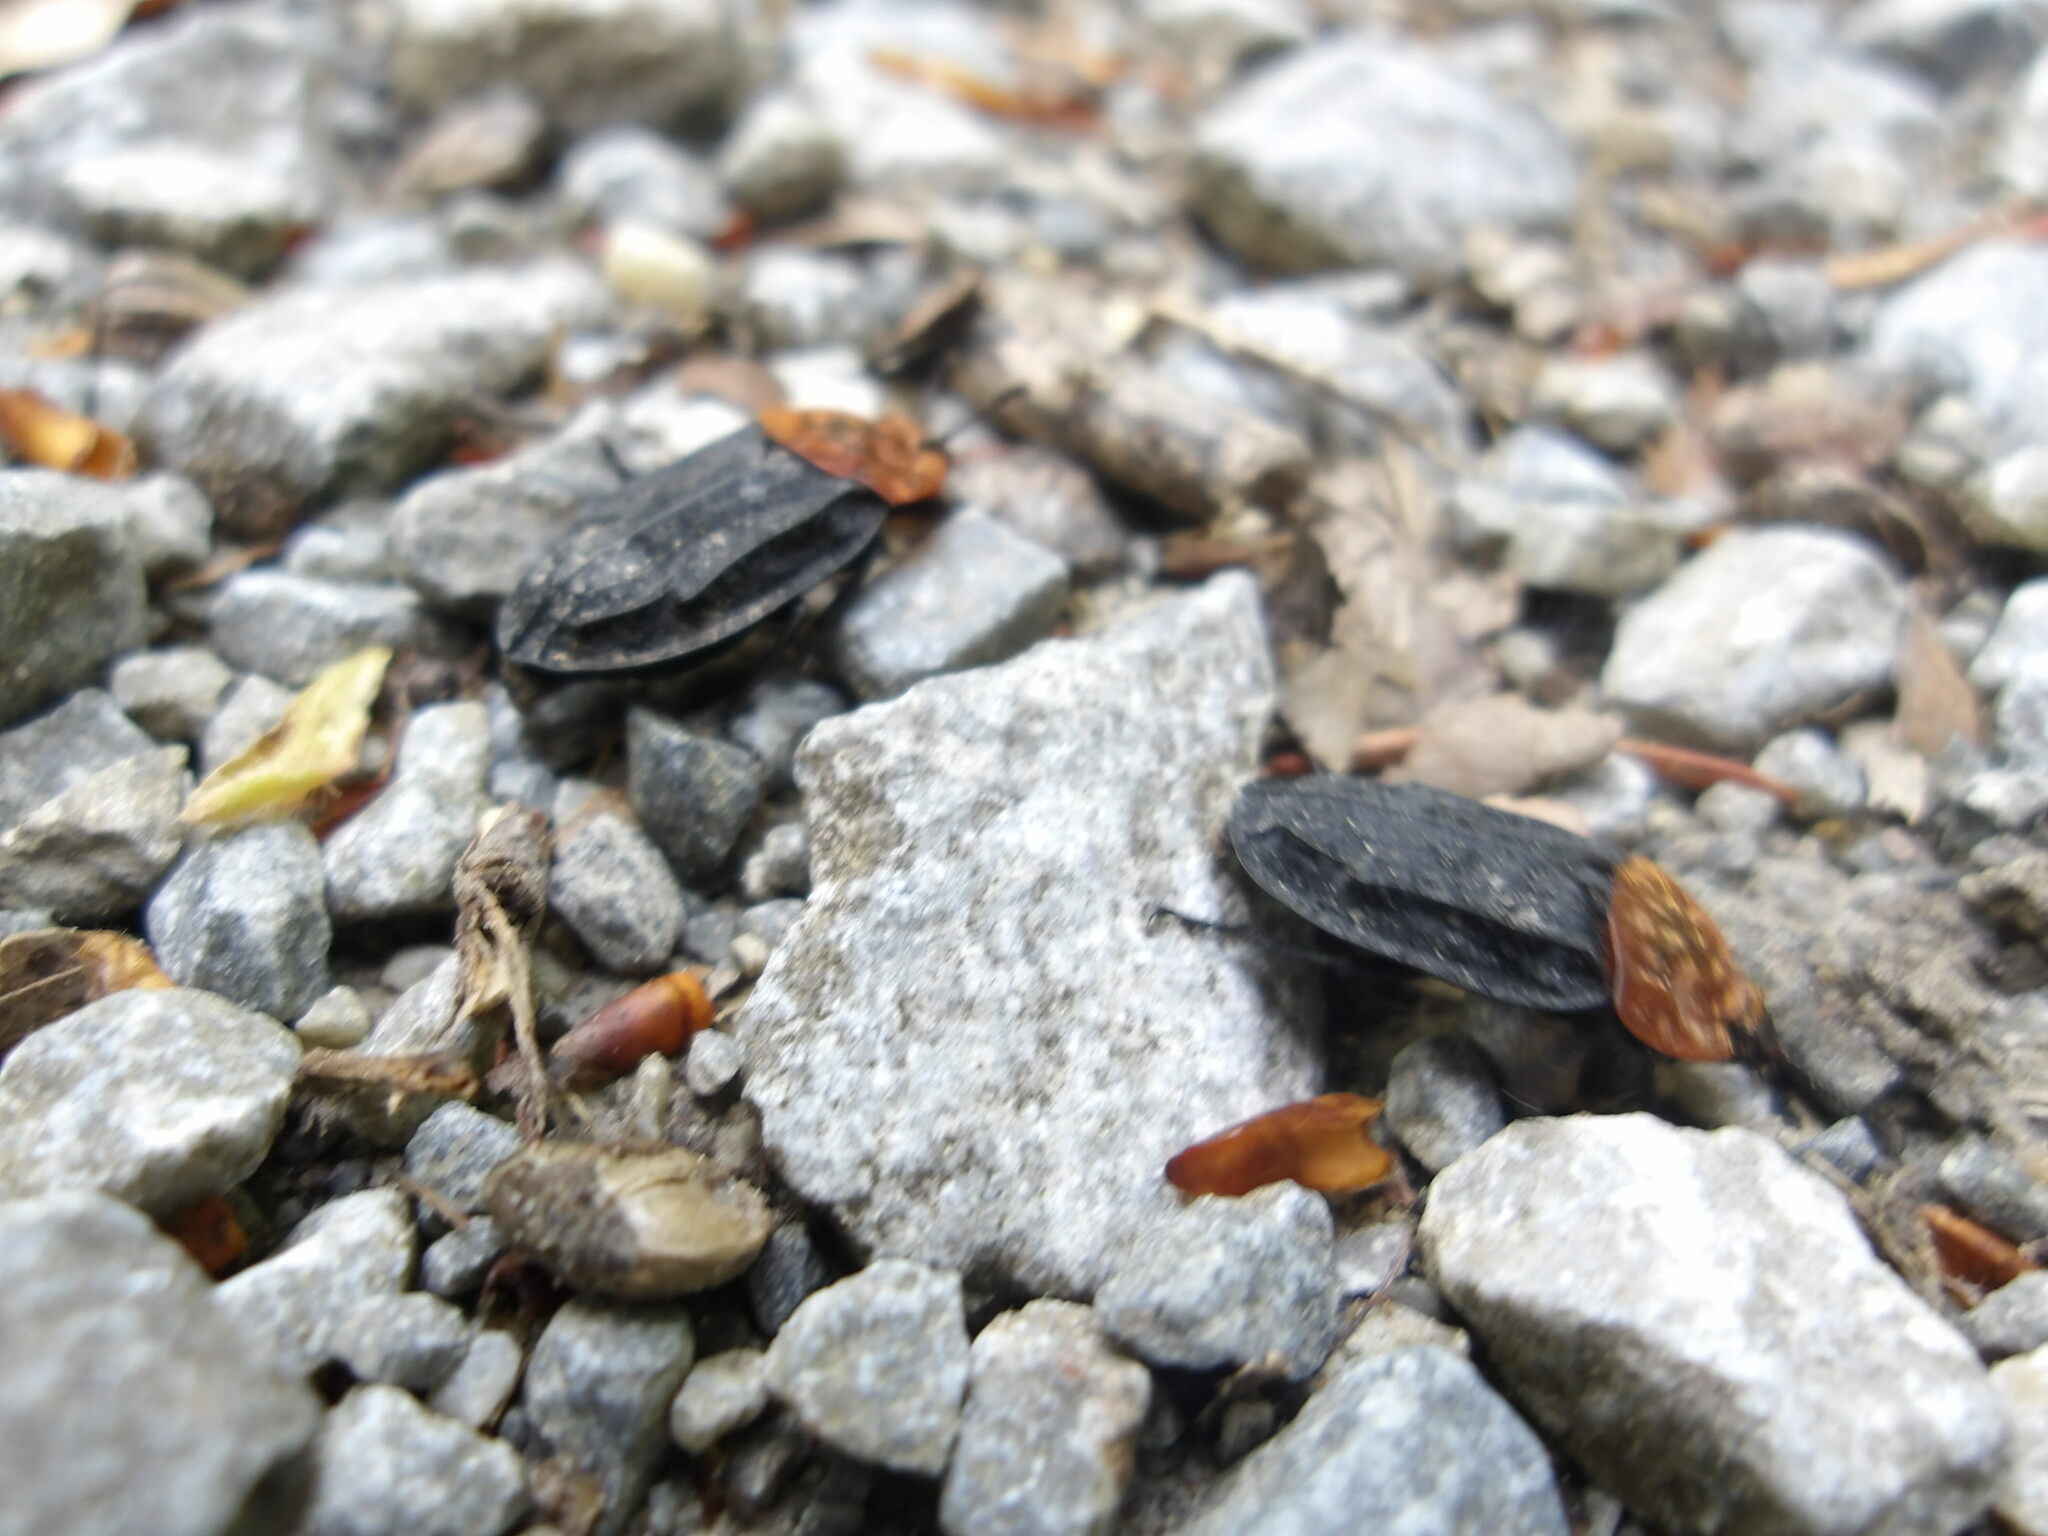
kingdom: Animalia
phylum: Arthropoda
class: Insecta
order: Coleoptera
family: Staphylinidae
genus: Oiceoptoma
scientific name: Oiceoptoma thoracicum
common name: Red-breasted carrion beetle
